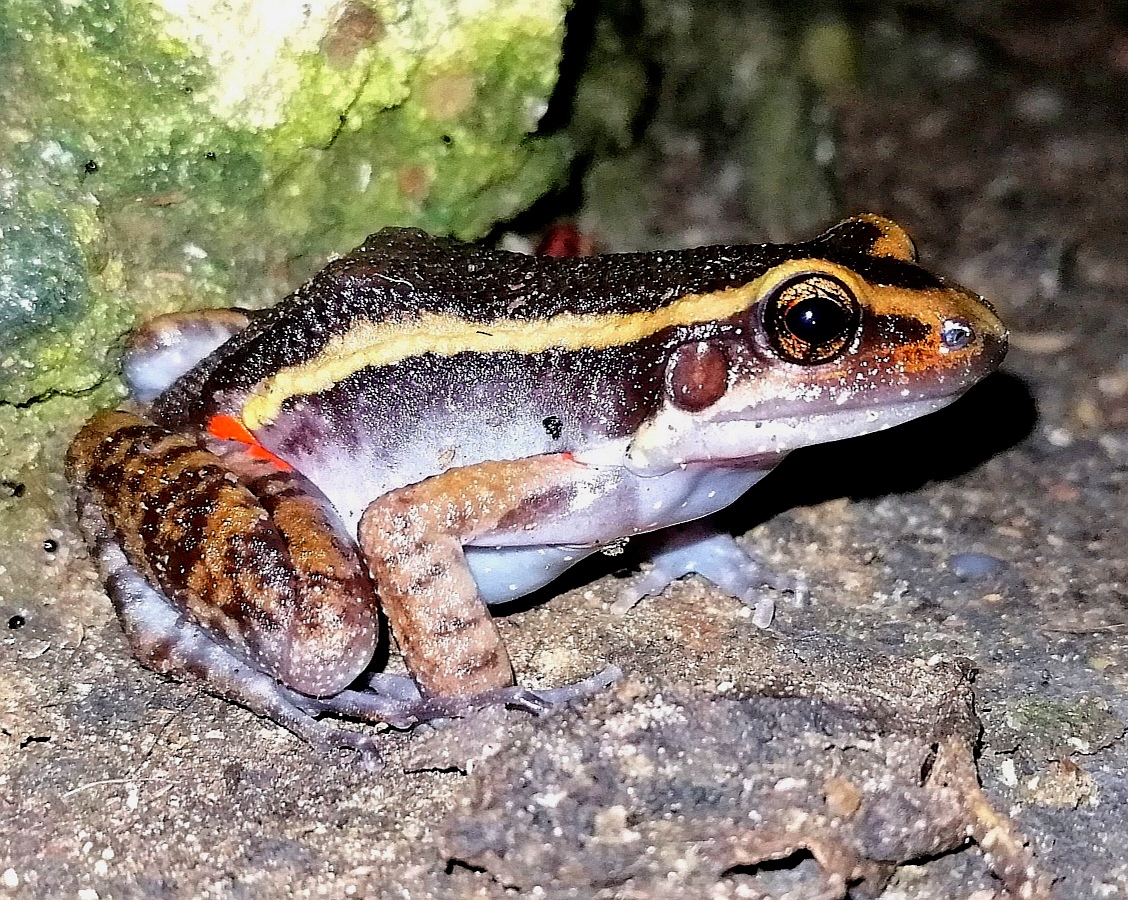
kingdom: Animalia
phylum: Chordata
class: Amphibia
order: Anura
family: Leptodactylidae
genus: Lithodytes
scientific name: Lithodytes lineatus
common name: Gold-striped frog
